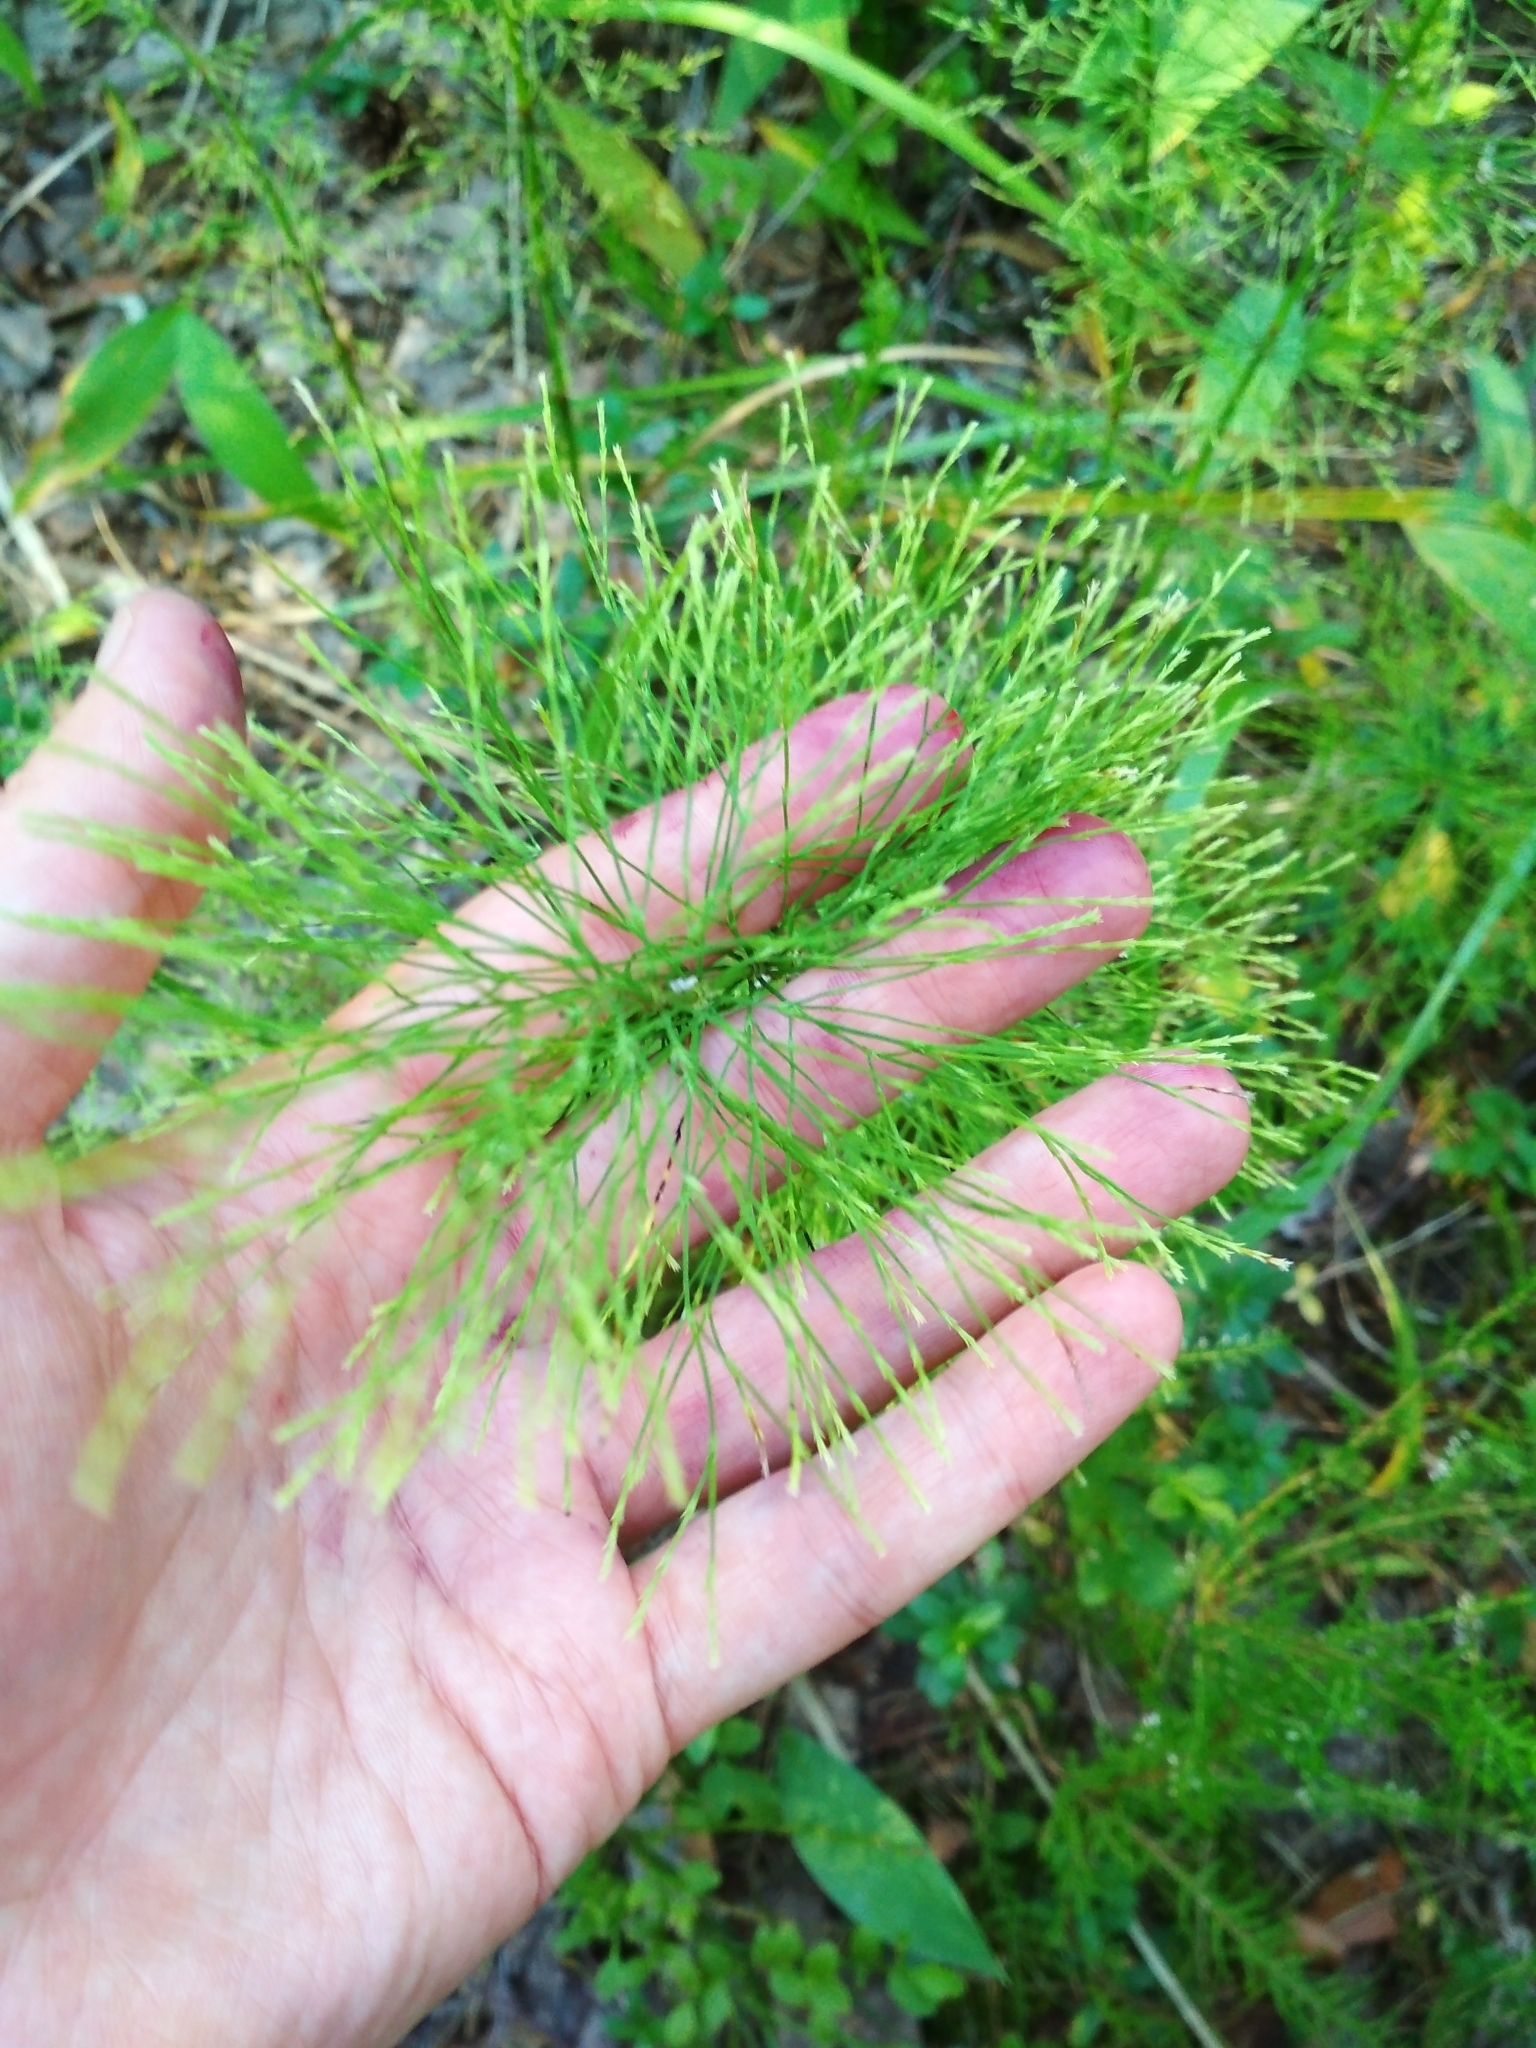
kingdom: Plantae
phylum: Tracheophyta
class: Polypodiopsida
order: Equisetales
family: Equisetaceae
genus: Equisetum
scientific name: Equisetum sylvaticum
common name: Wood horsetail
